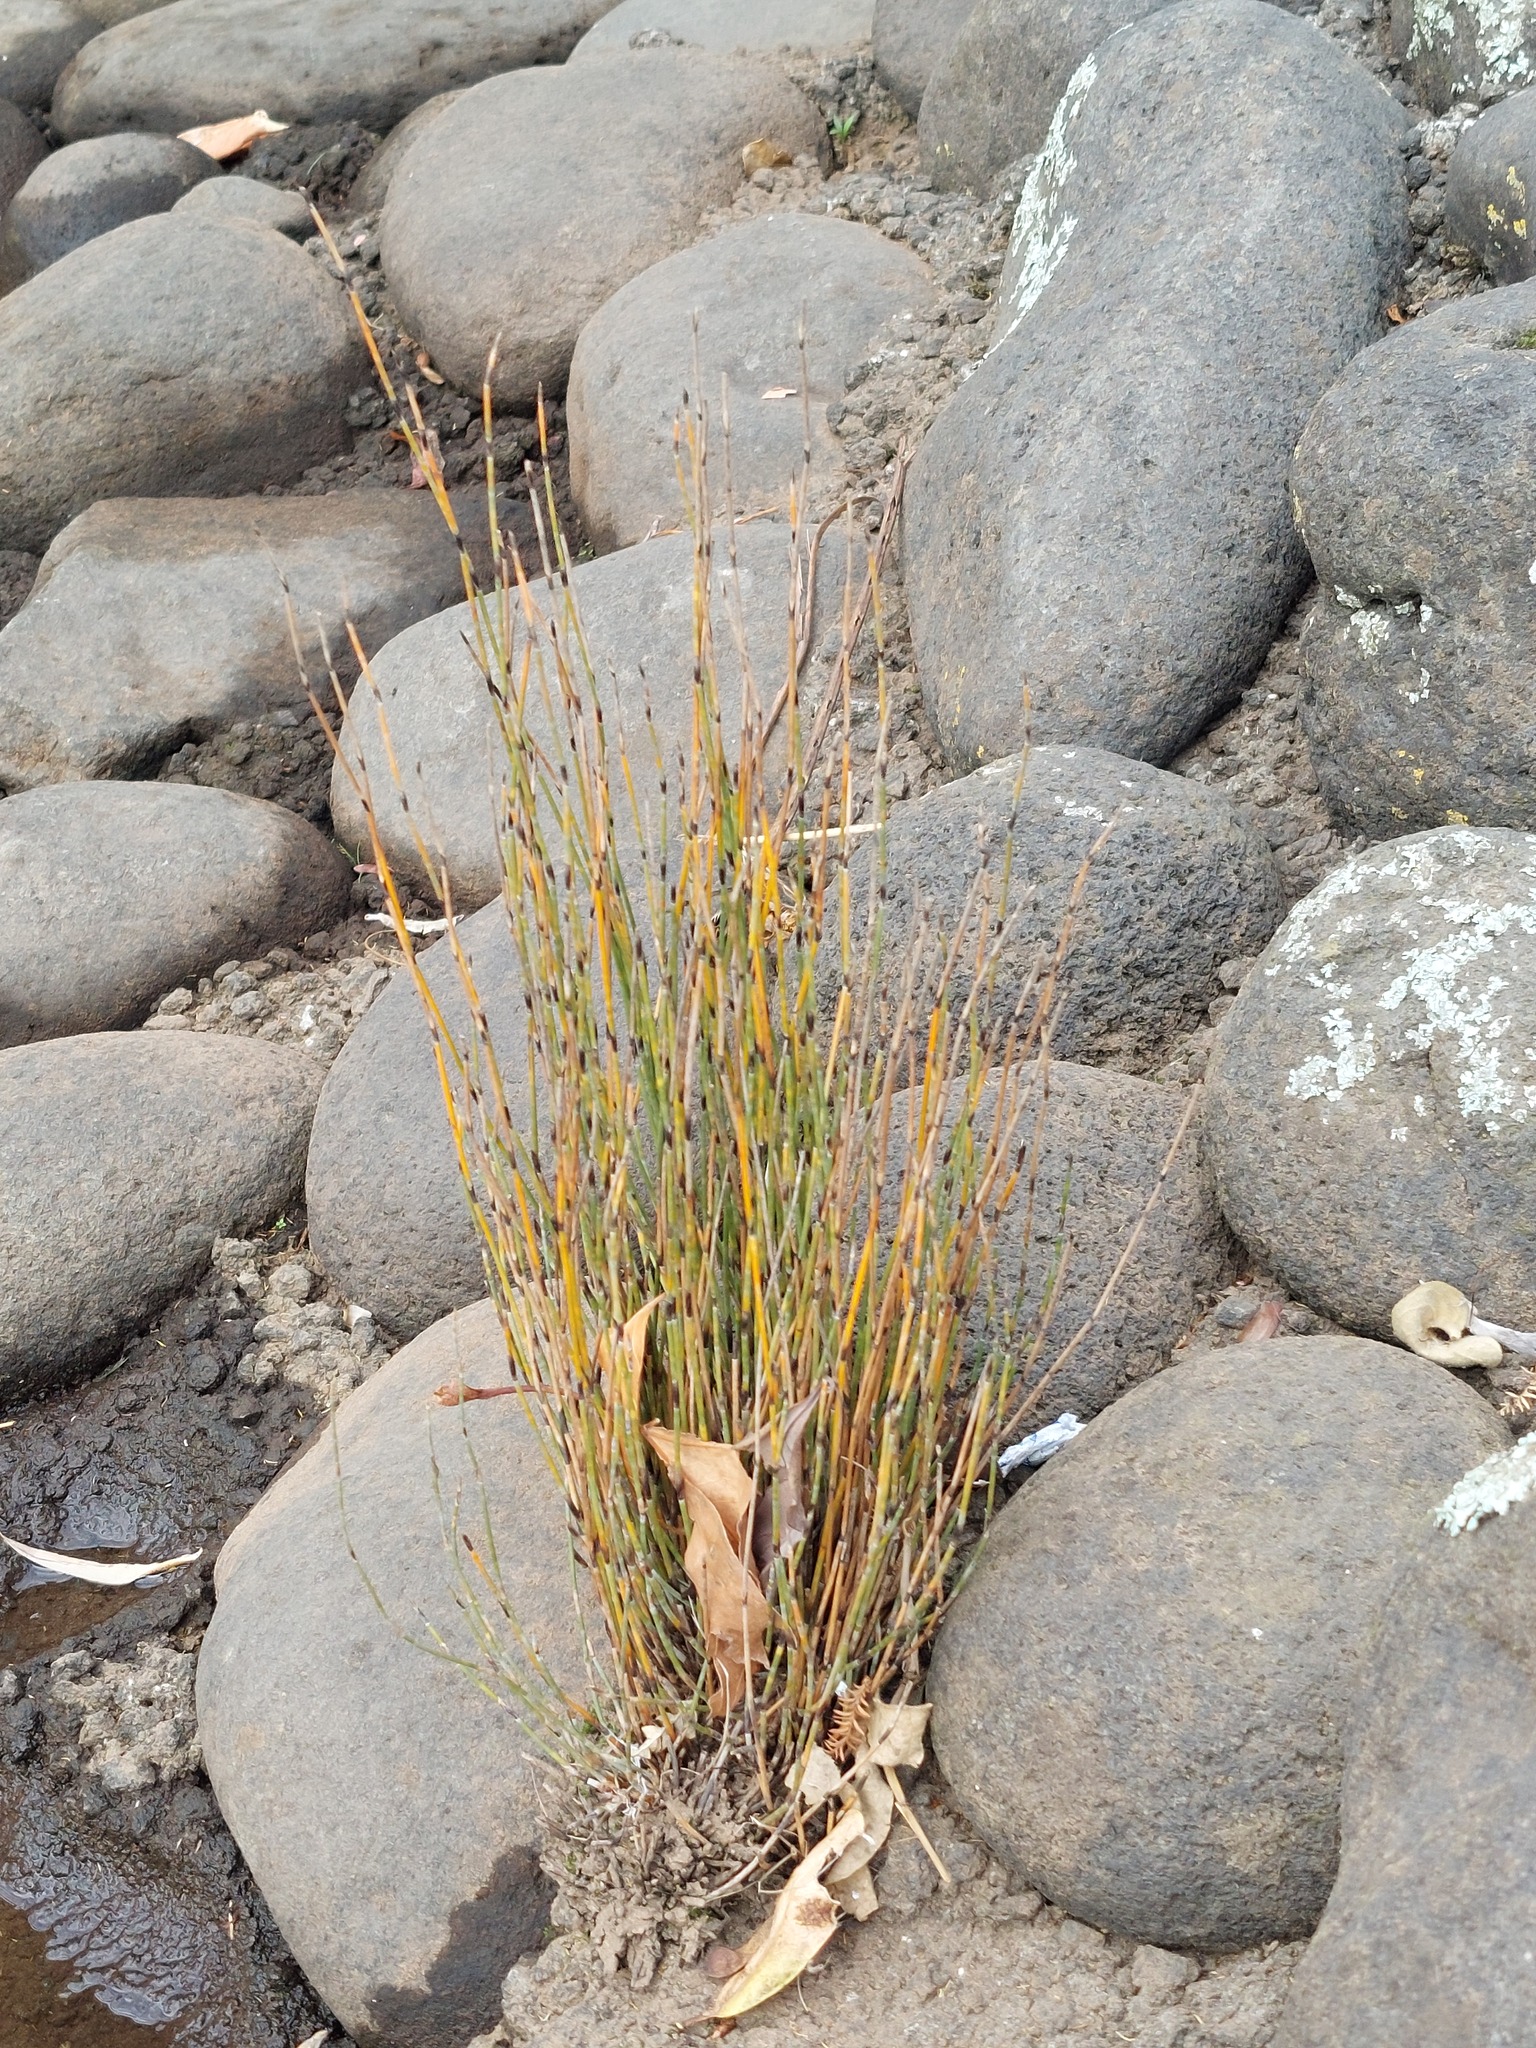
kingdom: Plantae
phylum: Tracheophyta
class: Liliopsida
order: Poales
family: Restionaceae
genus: Apodasmia
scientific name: Apodasmia similis
